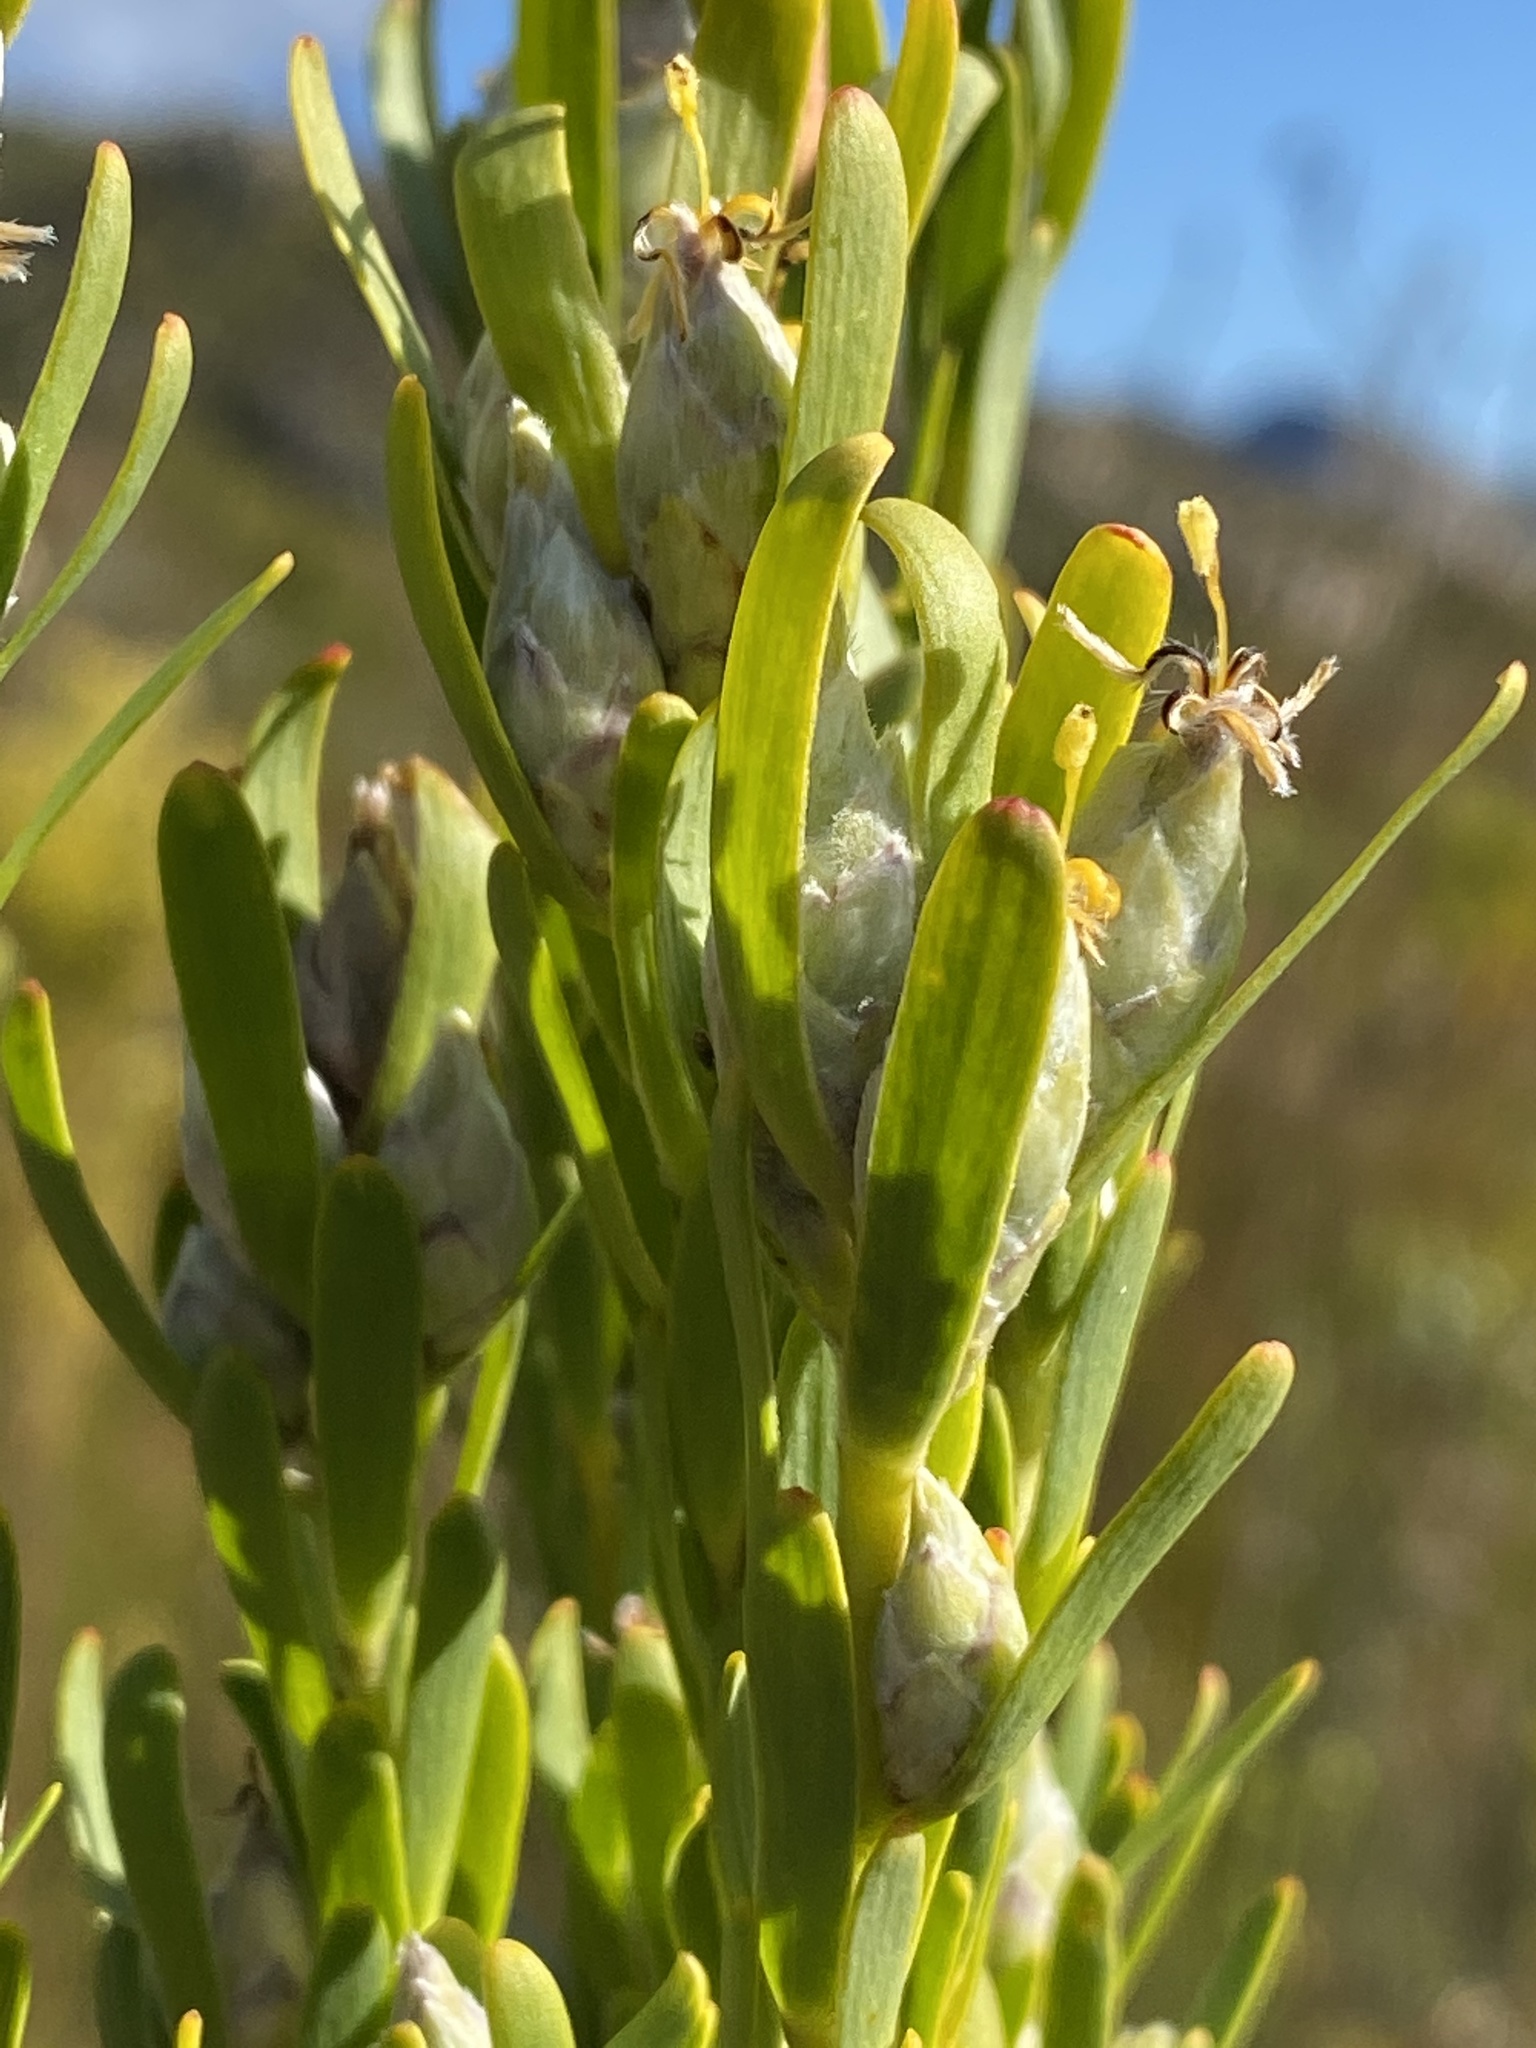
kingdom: Plantae
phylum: Tracheophyta
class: Magnoliopsida
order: Proteales
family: Proteaceae
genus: Leucadendron
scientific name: Leucadendron ericifolium
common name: Erica-leaved conebush
